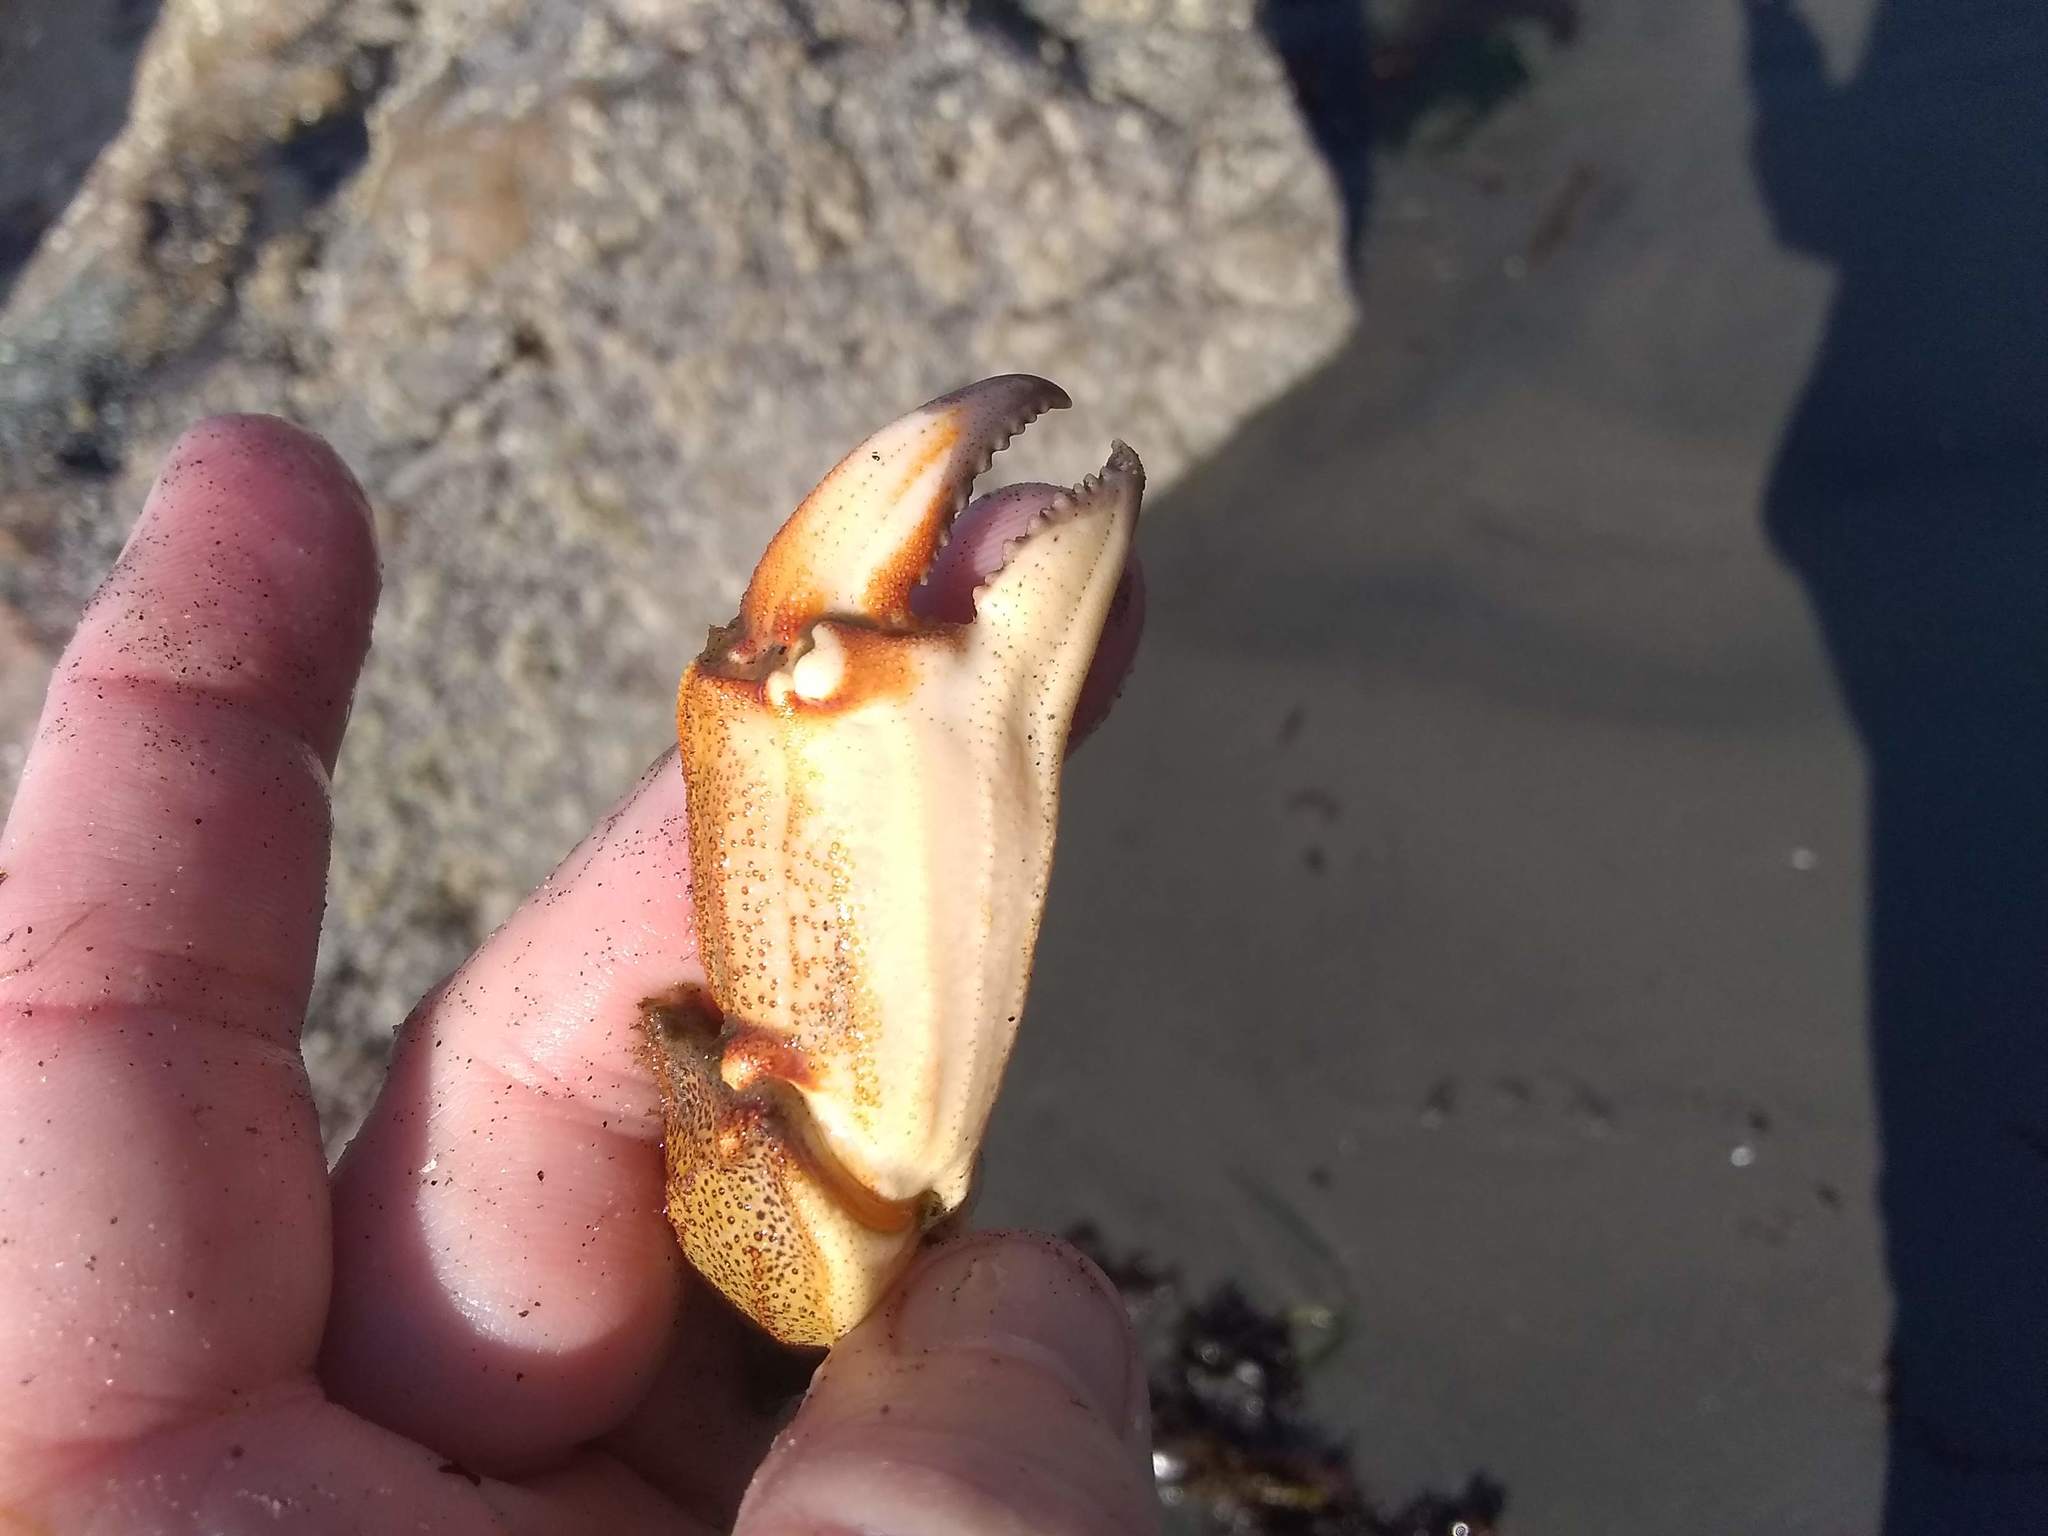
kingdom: Animalia
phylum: Arthropoda
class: Malacostraca
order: Decapoda
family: Cancridae
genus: Cancer
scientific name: Cancer borealis
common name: Jonah crab
